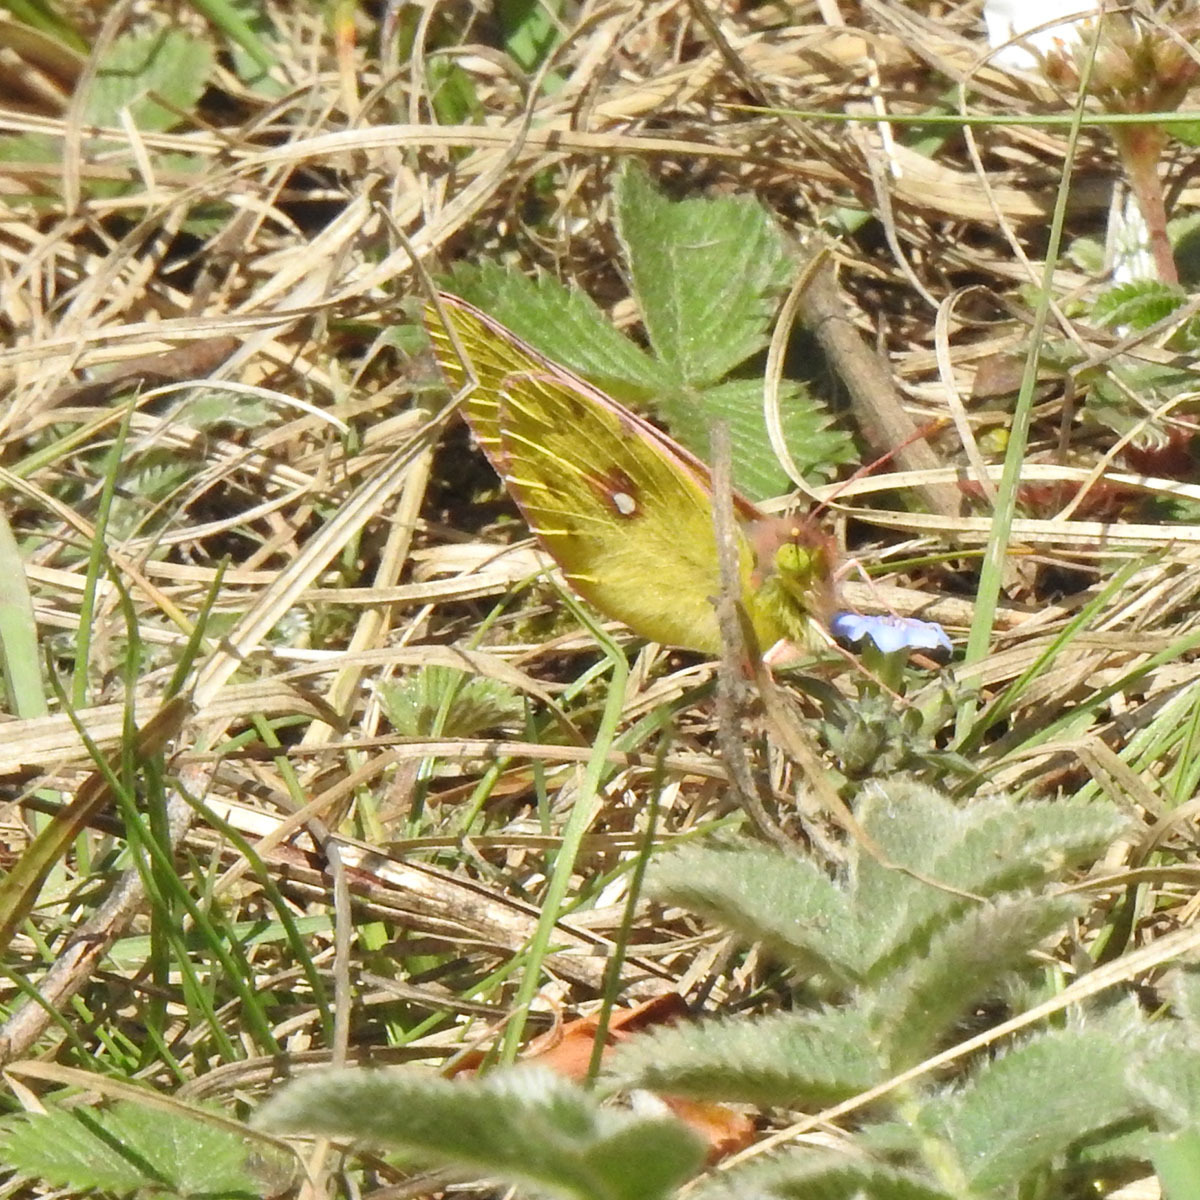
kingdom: Animalia
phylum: Arthropoda
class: Insecta
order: Lepidoptera
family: Pieridae
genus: Colias
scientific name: Colias fieldii
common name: Dark clouded yellow
